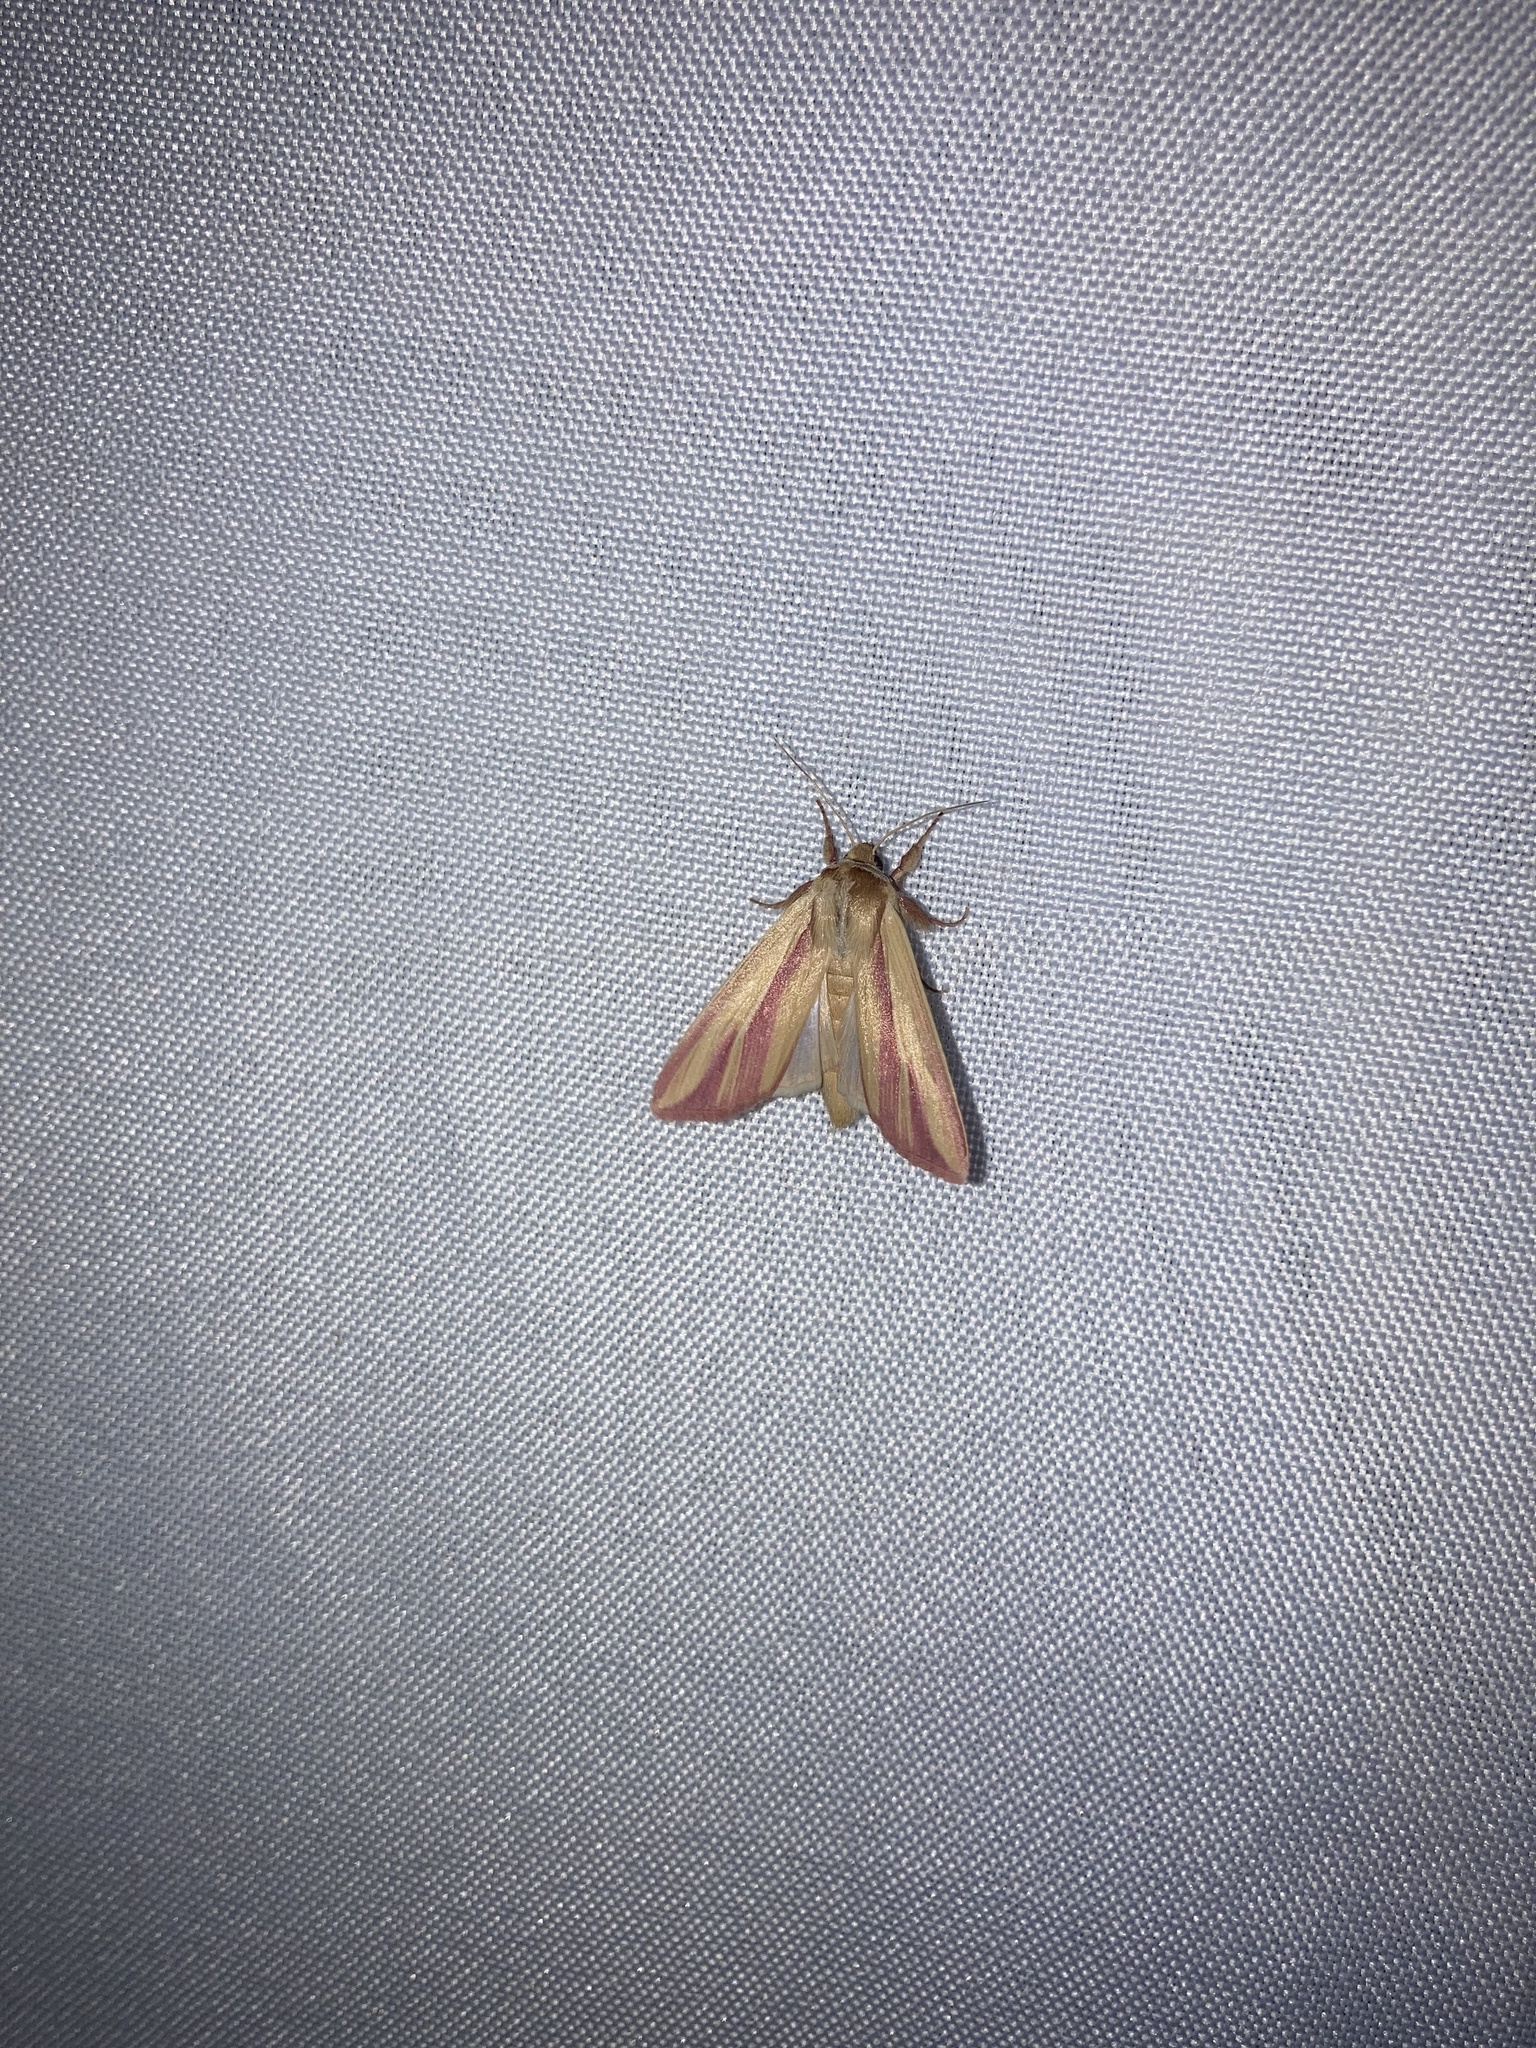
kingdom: Animalia
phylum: Arthropoda
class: Insecta
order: Lepidoptera
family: Noctuidae
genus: Dargida
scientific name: Dargida rubripennis
